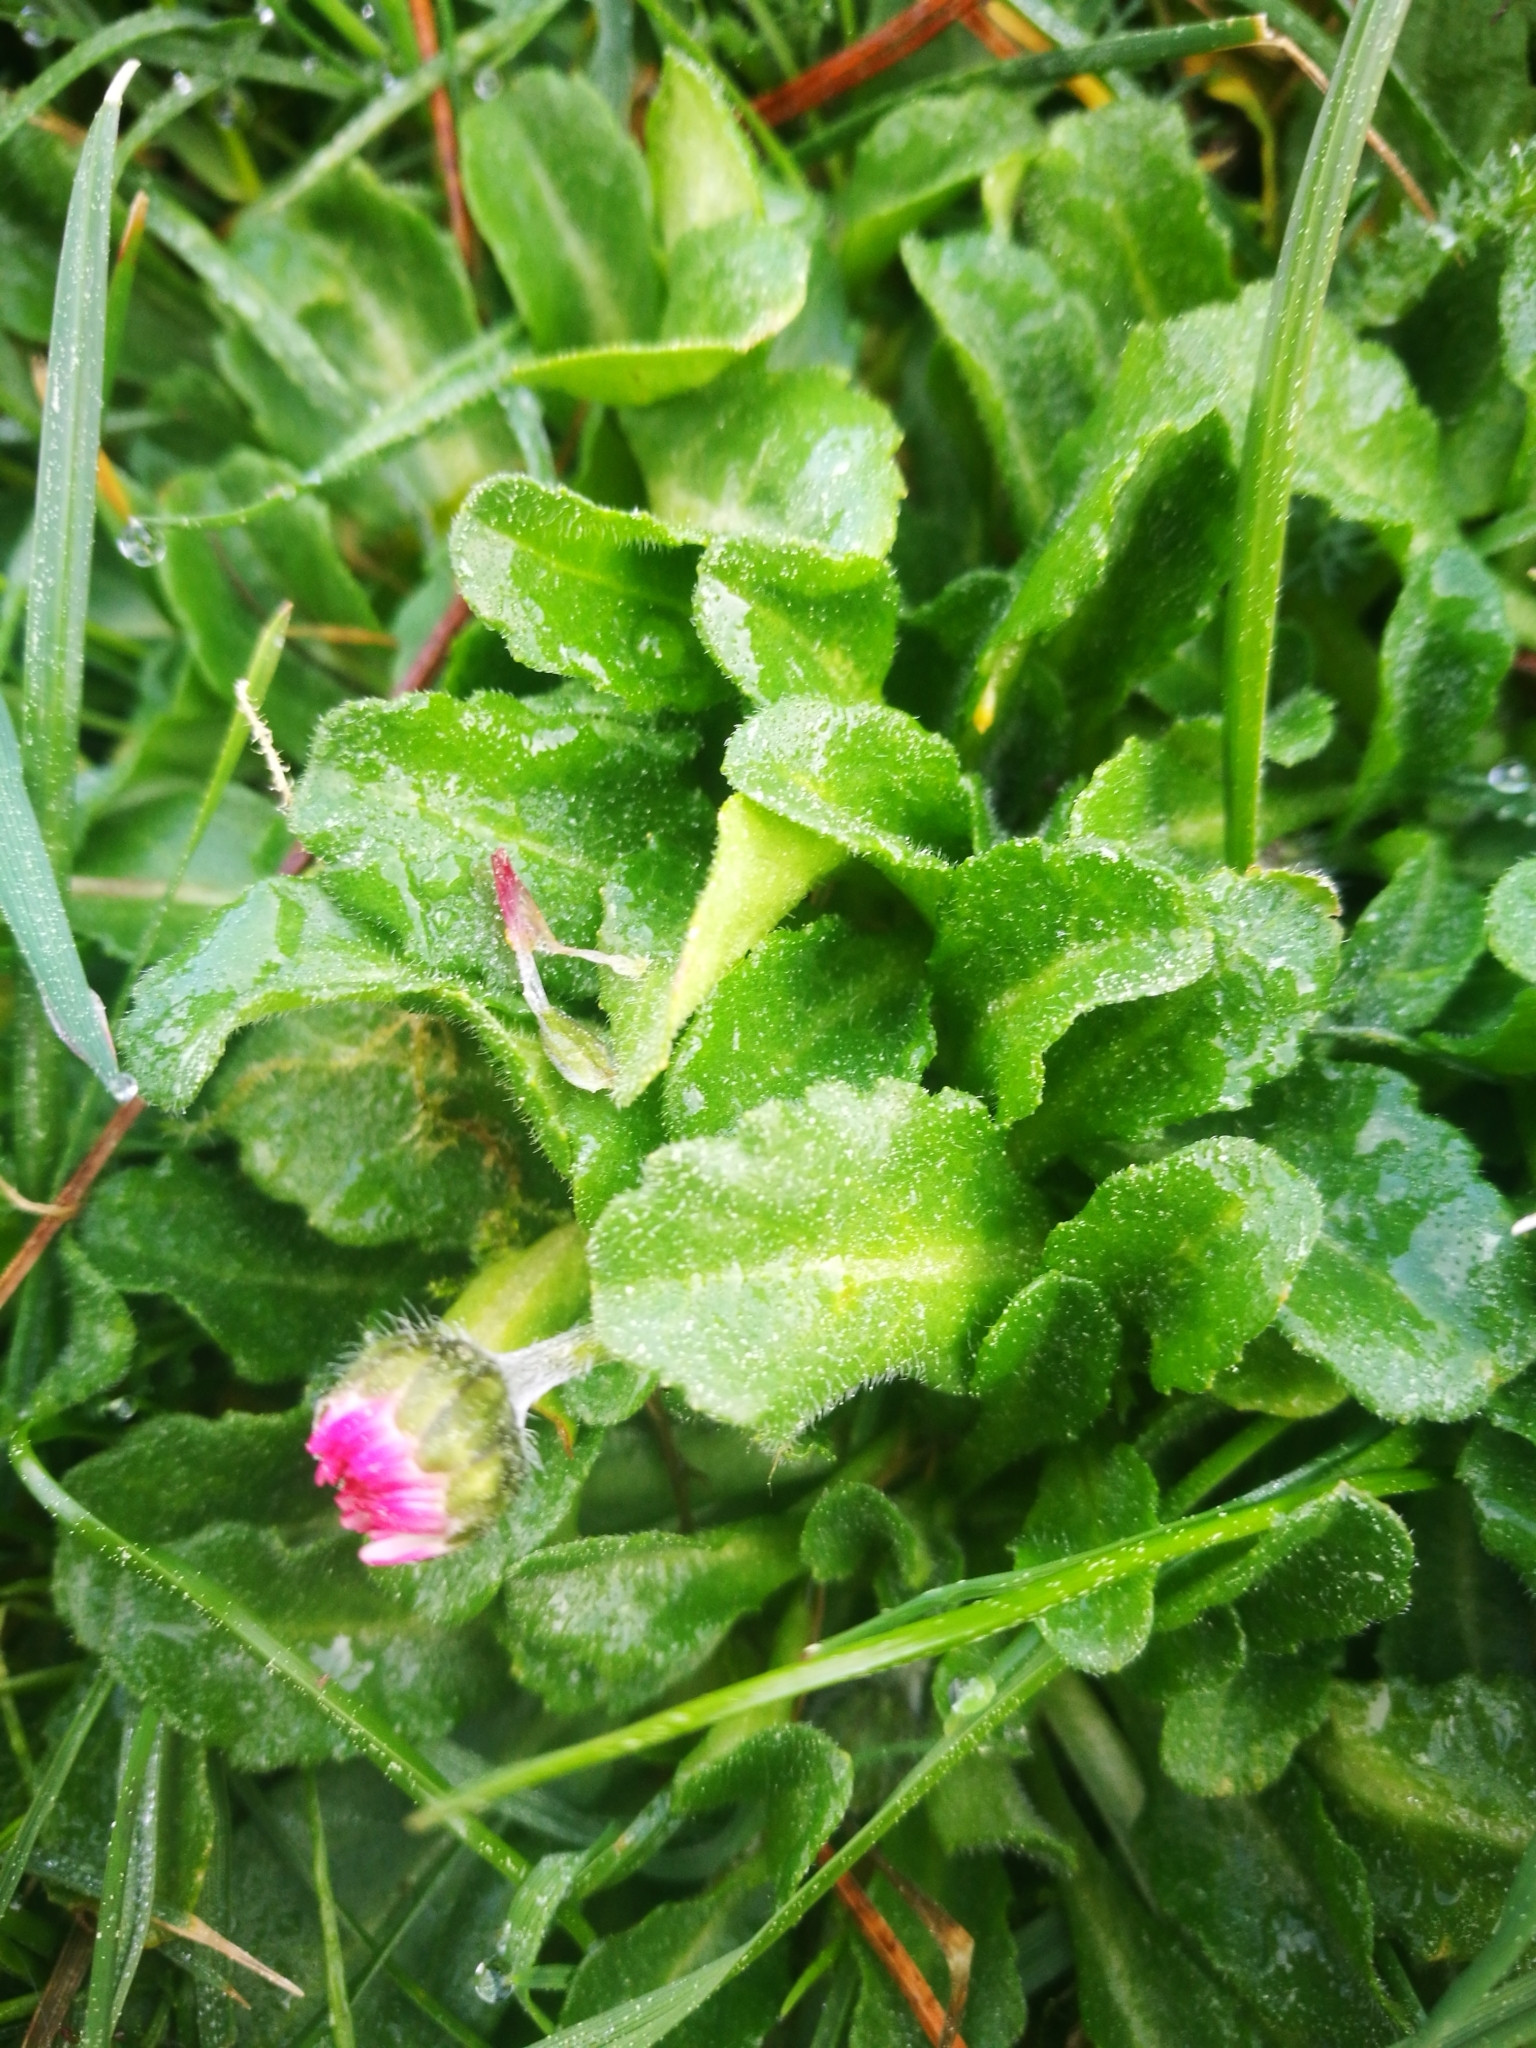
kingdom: Plantae
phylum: Tracheophyta
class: Magnoliopsida
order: Asterales
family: Asteraceae
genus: Bellis
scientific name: Bellis perennis
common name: Lawndaisy
